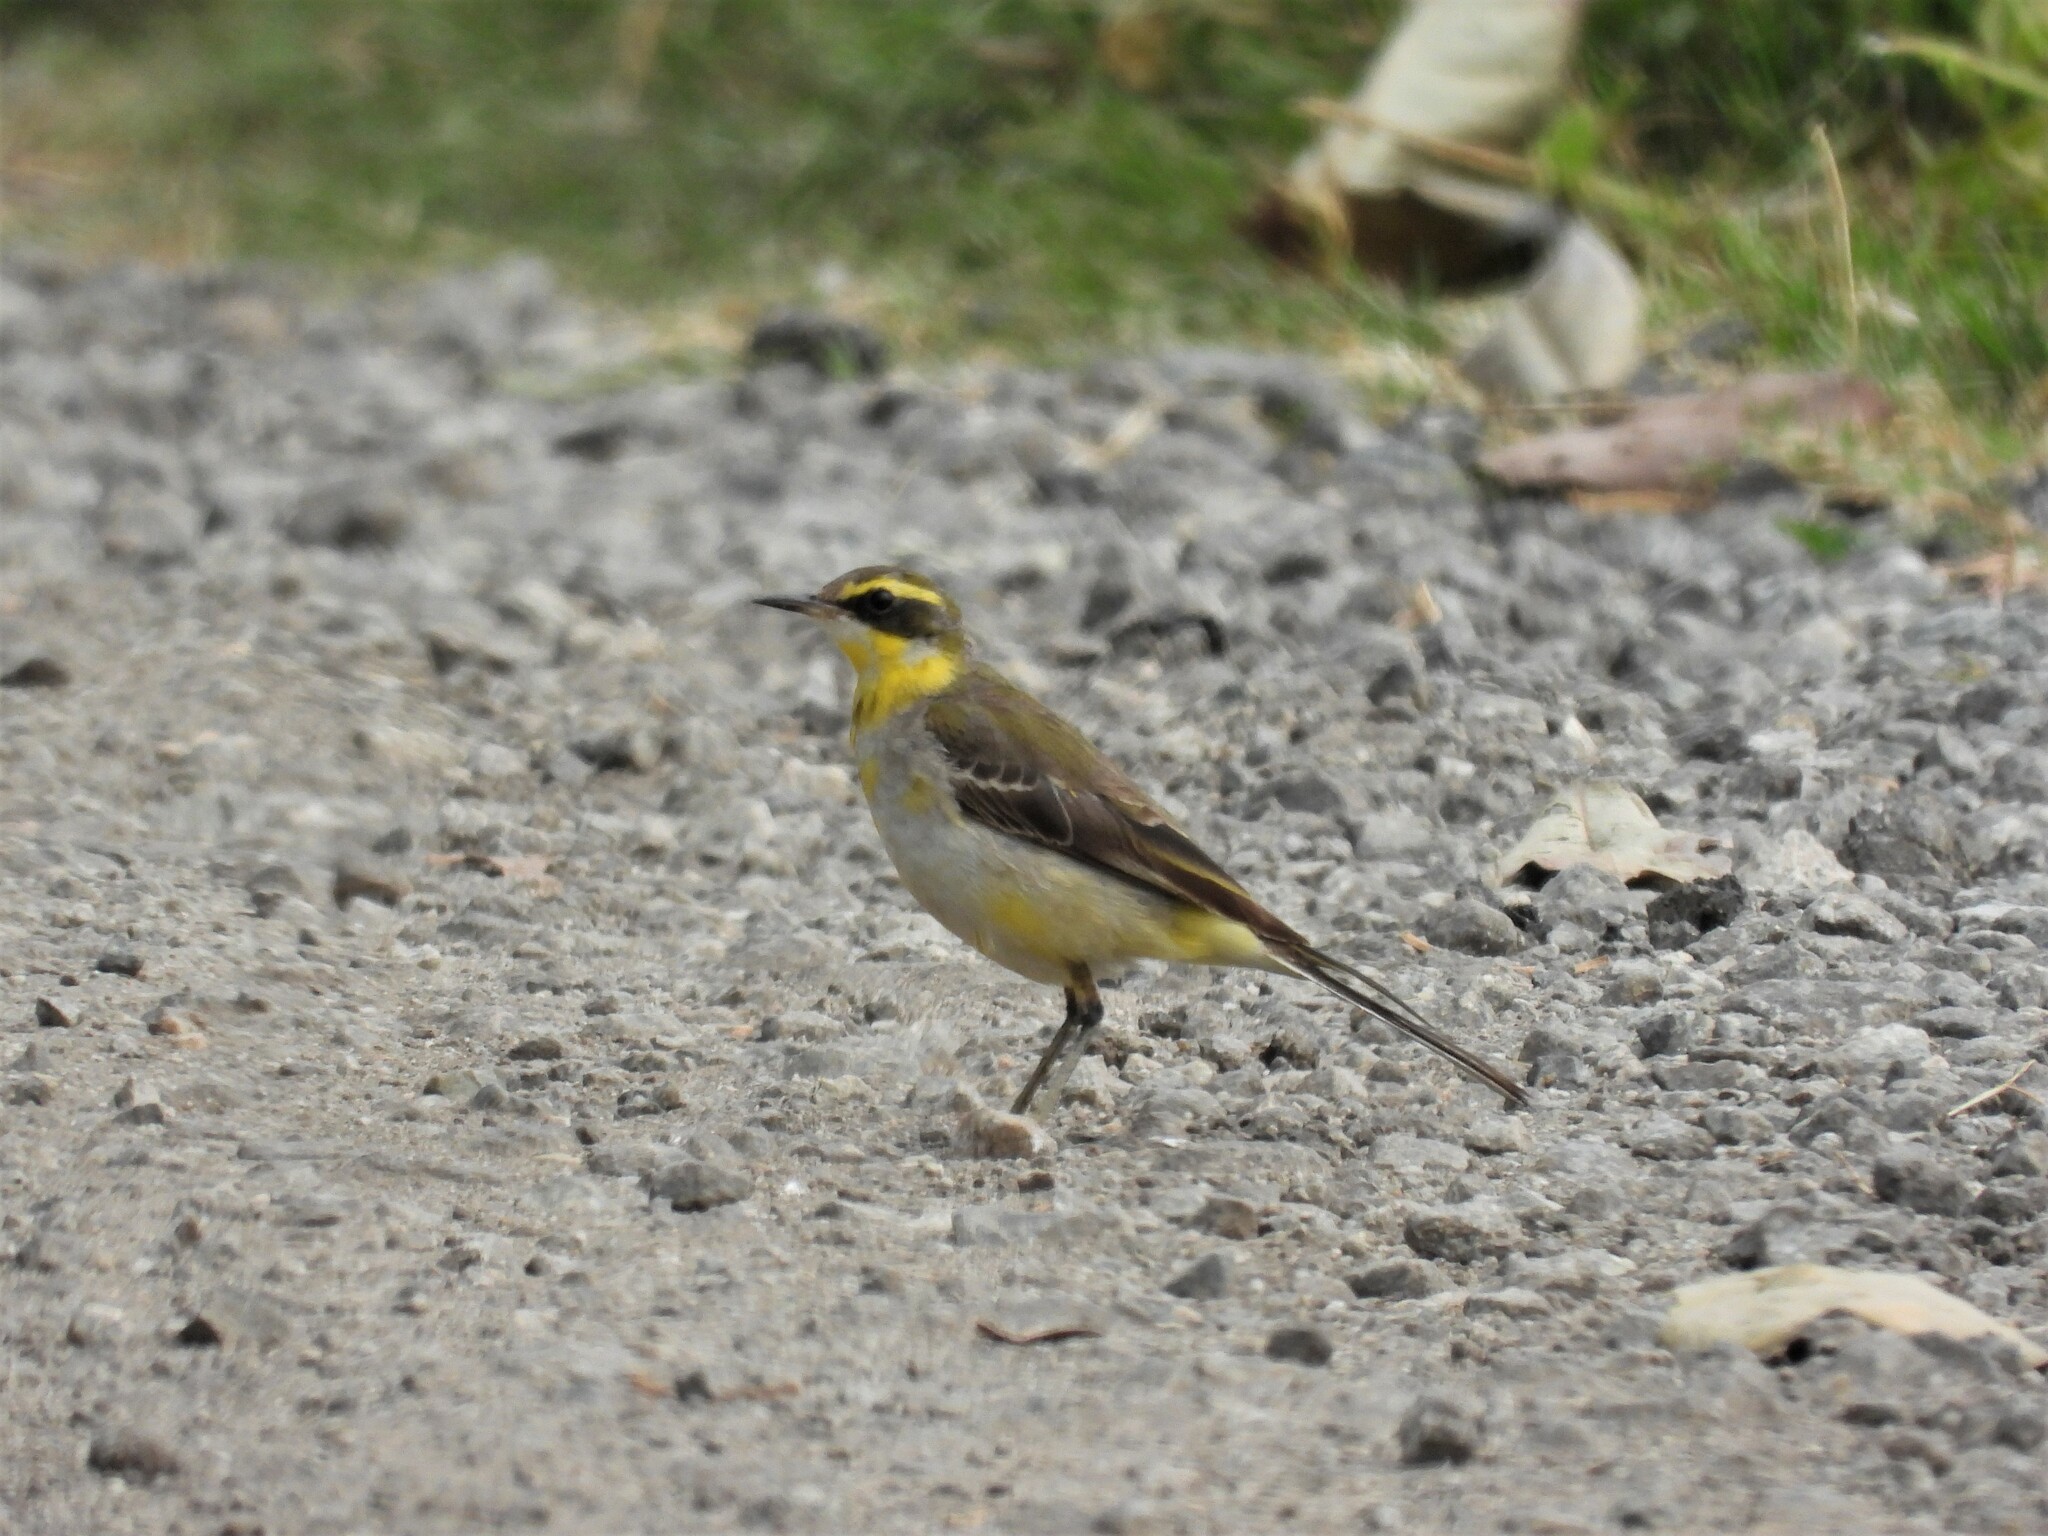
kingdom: Animalia
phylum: Chordata
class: Aves
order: Passeriformes
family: Motacillidae
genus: Motacilla
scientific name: Motacilla tschutschensis
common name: Eastern yellow wagtail
